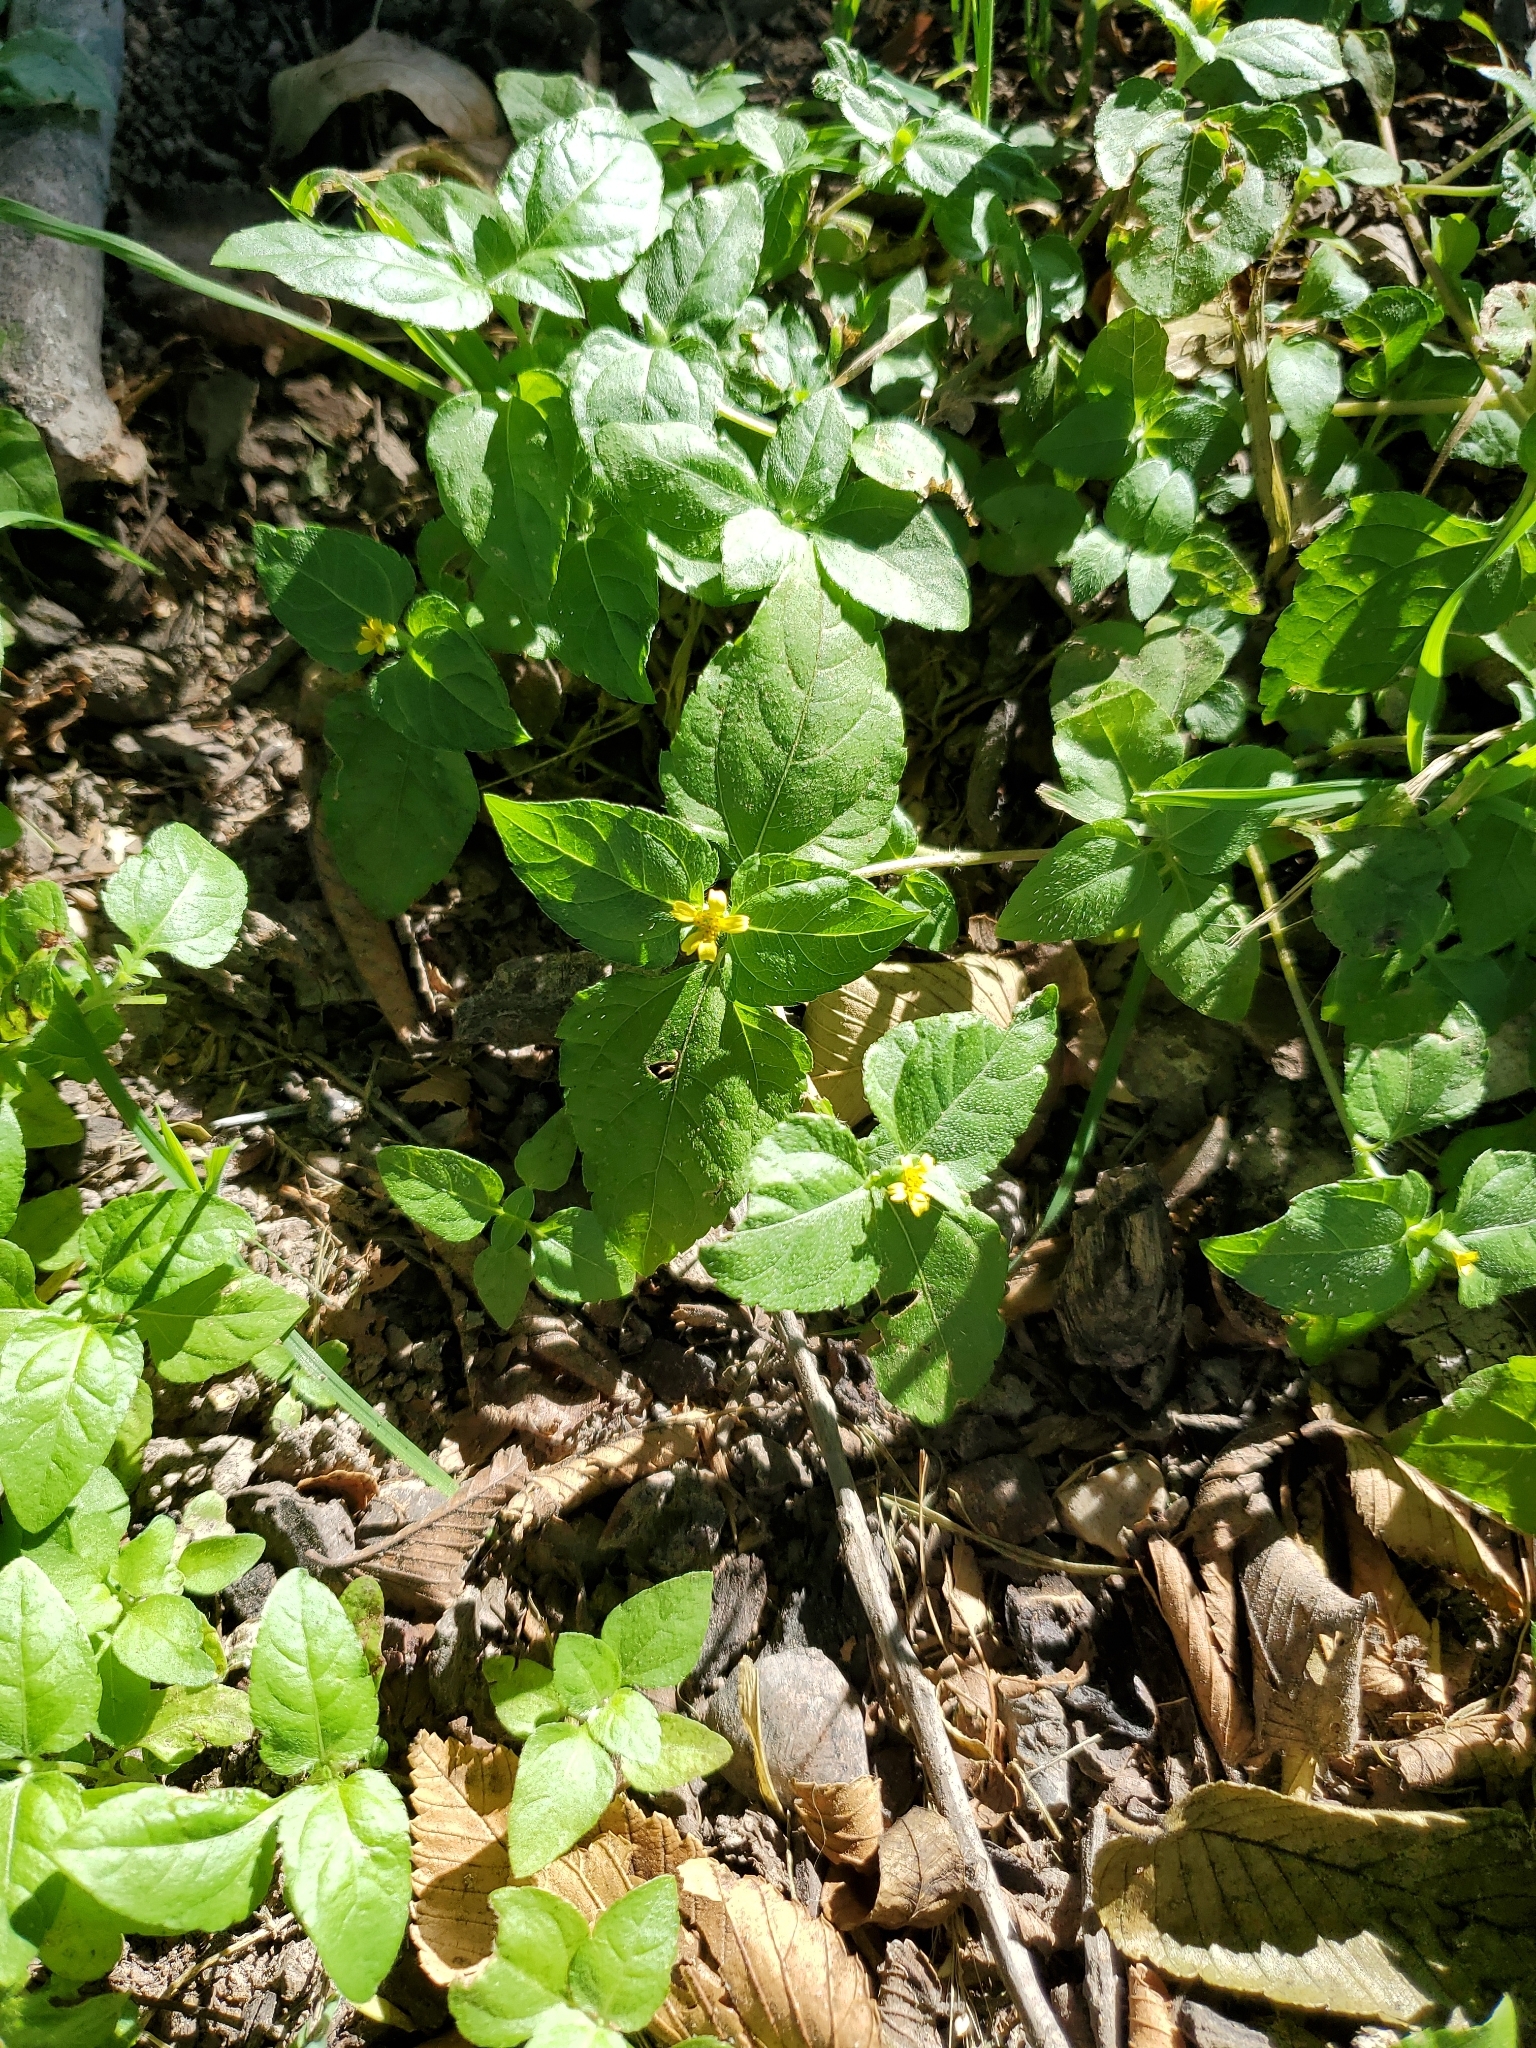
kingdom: Plantae
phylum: Tracheophyta
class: Magnoliopsida
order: Asterales
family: Asteraceae
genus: Calyptocarpus
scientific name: Calyptocarpus vialis
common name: Straggler daisy
